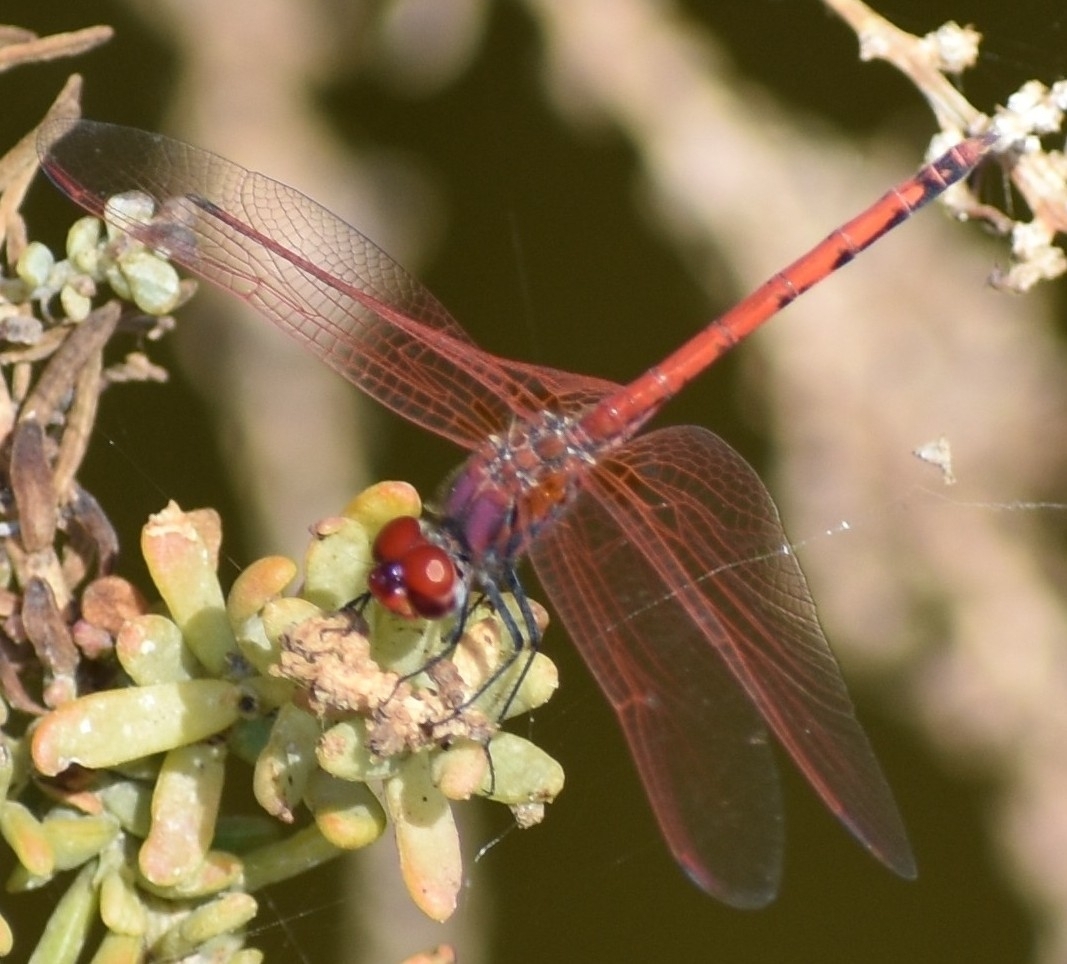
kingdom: Animalia
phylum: Arthropoda
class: Insecta
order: Odonata
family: Libellulidae
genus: Trithemis
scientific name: Trithemis arteriosa
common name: Red-veined dropwing
